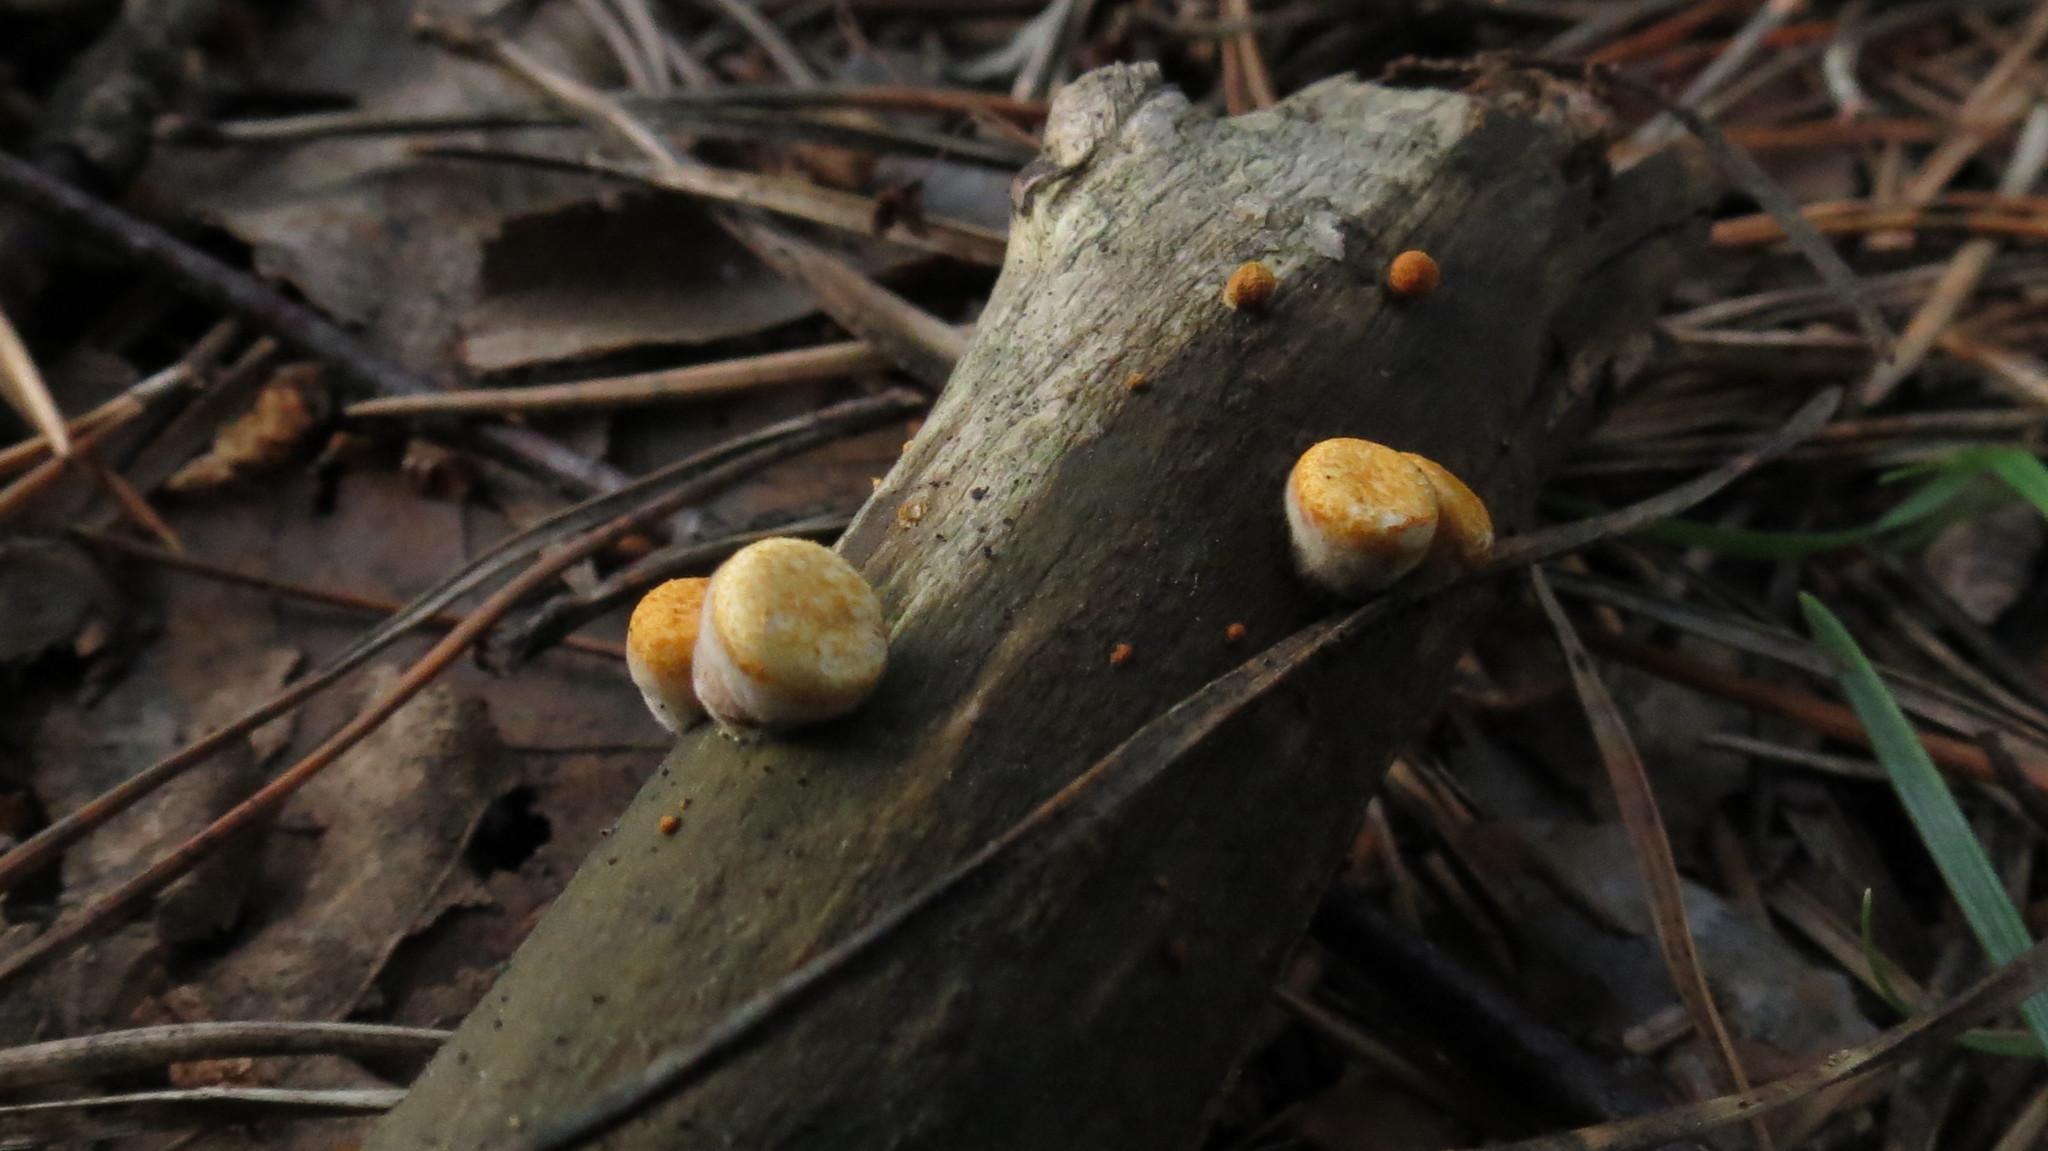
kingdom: Fungi
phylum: Basidiomycota
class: Agaricomycetes
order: Agaricales
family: Nidulariaceae
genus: Crucibulum
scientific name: Crucibulum laeve
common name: Common bird's nest
